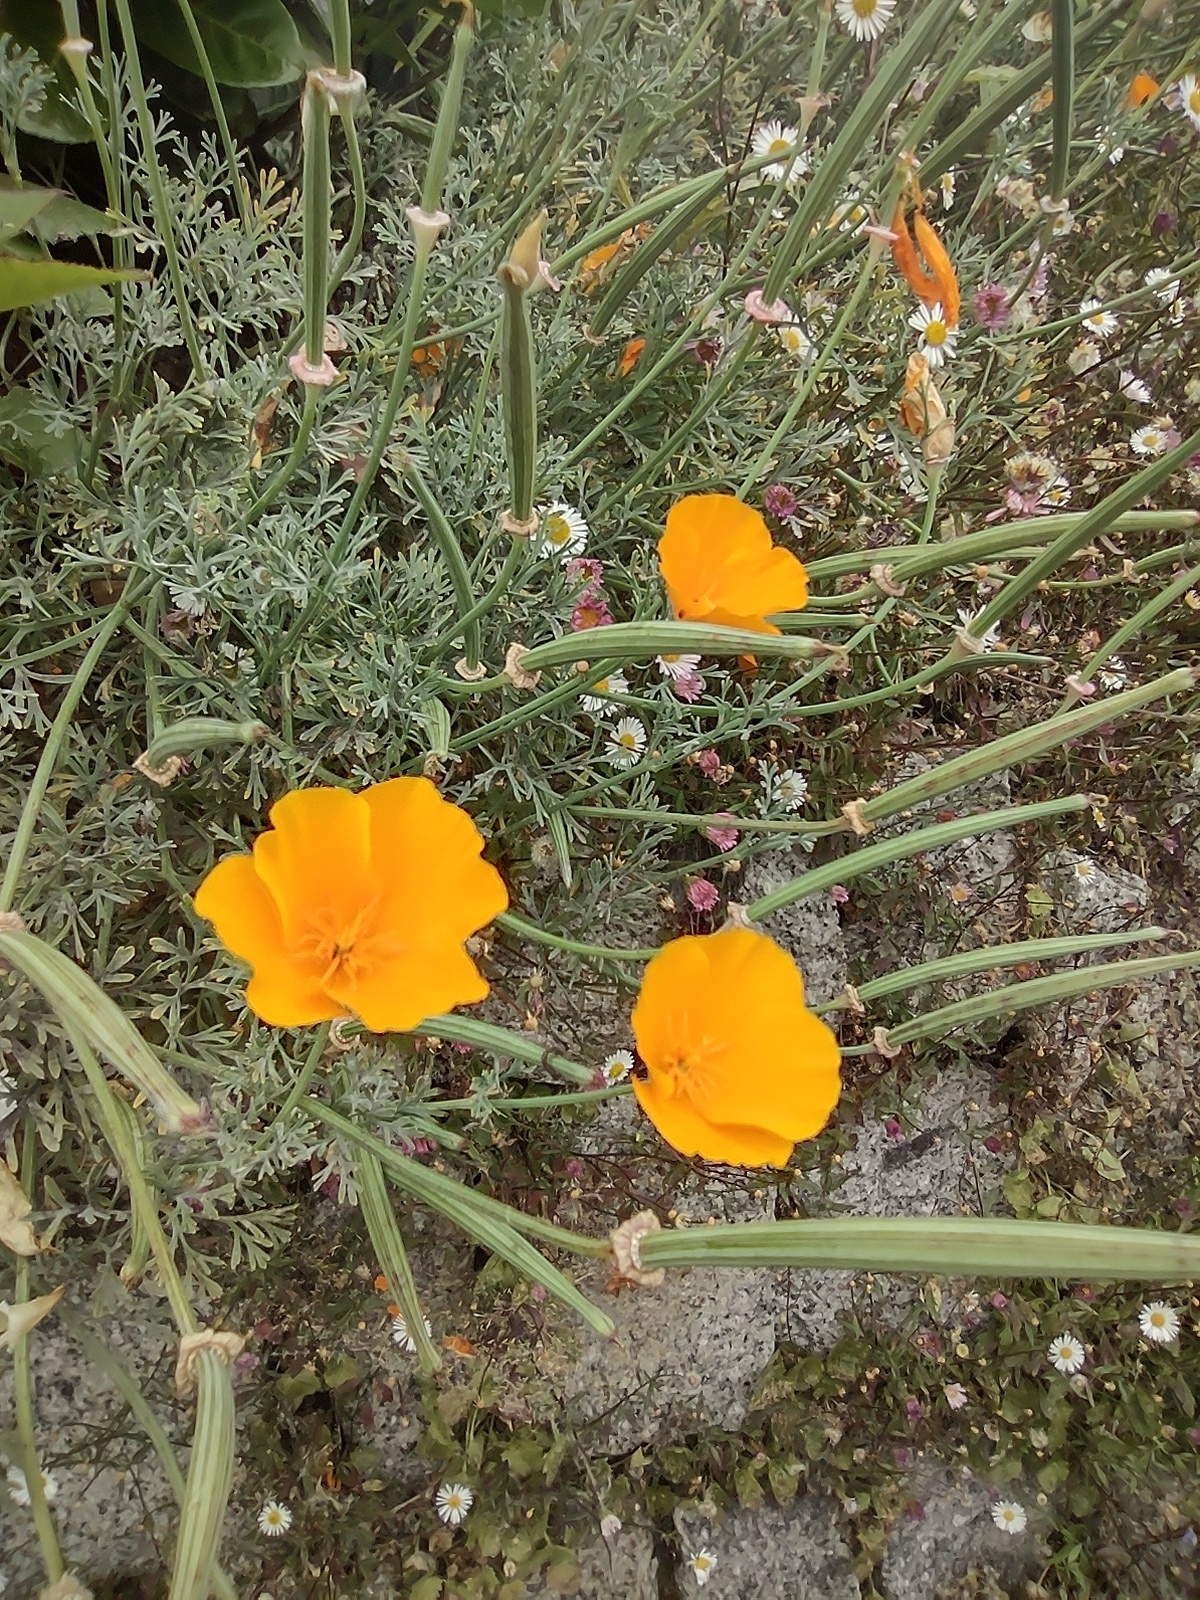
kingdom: Plantae
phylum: Tracheophyta
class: Magnoliopsida
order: Ranunculales
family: Papaveraceae
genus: Eschscholzia
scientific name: Eschscholzia californica
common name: California poppy
